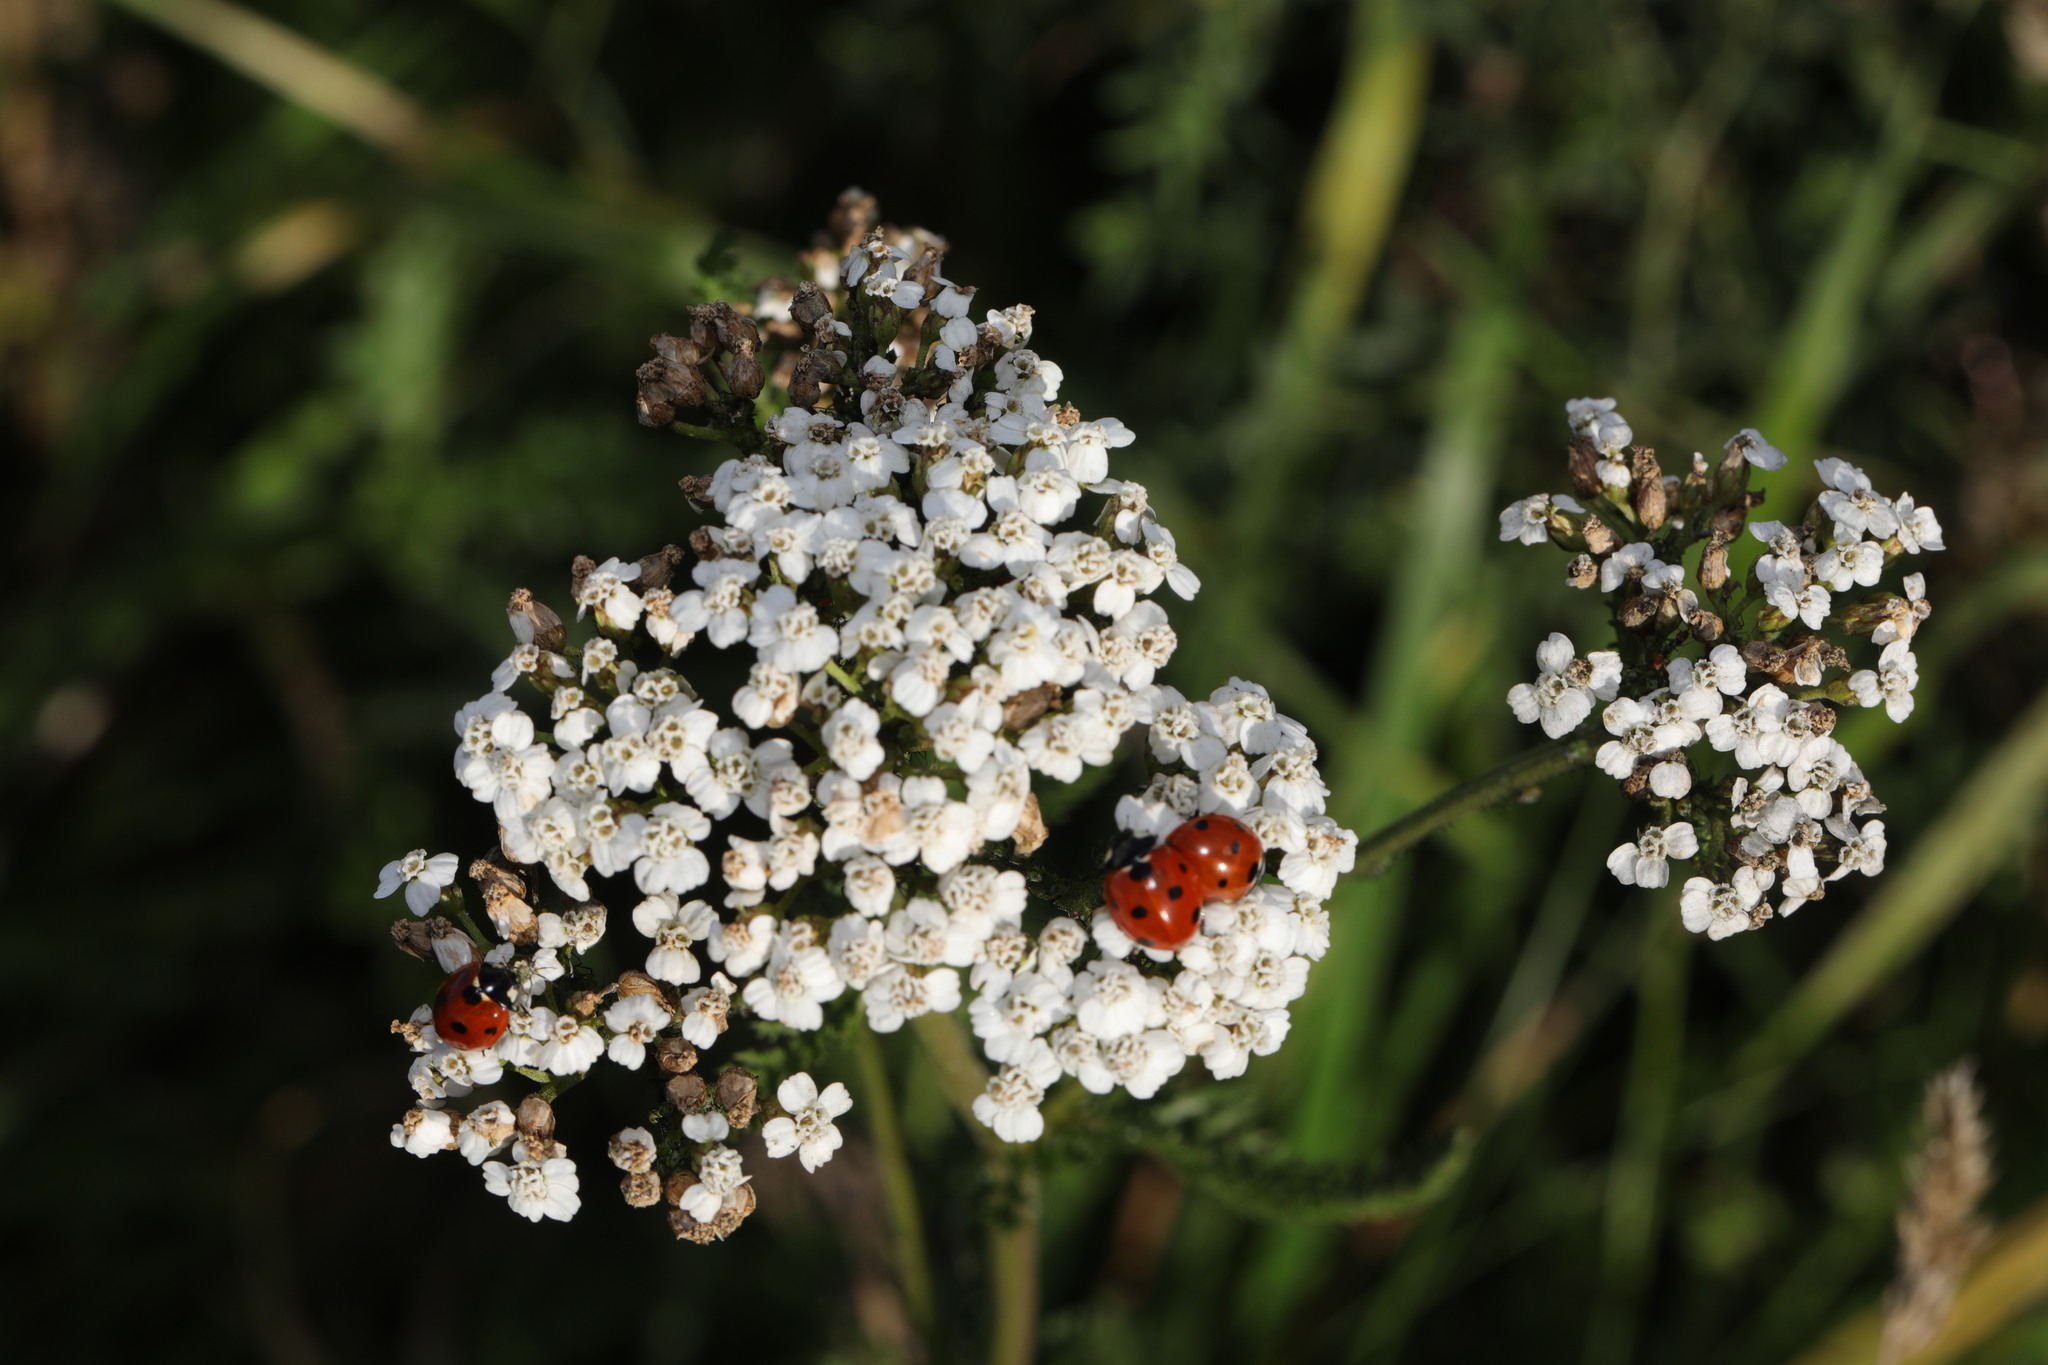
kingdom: Plantae
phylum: Tracheophyta
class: Magnoliopsida
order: Asterales
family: Asteraceae
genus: Achillea
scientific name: Achillea millefolium
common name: Yarrow
